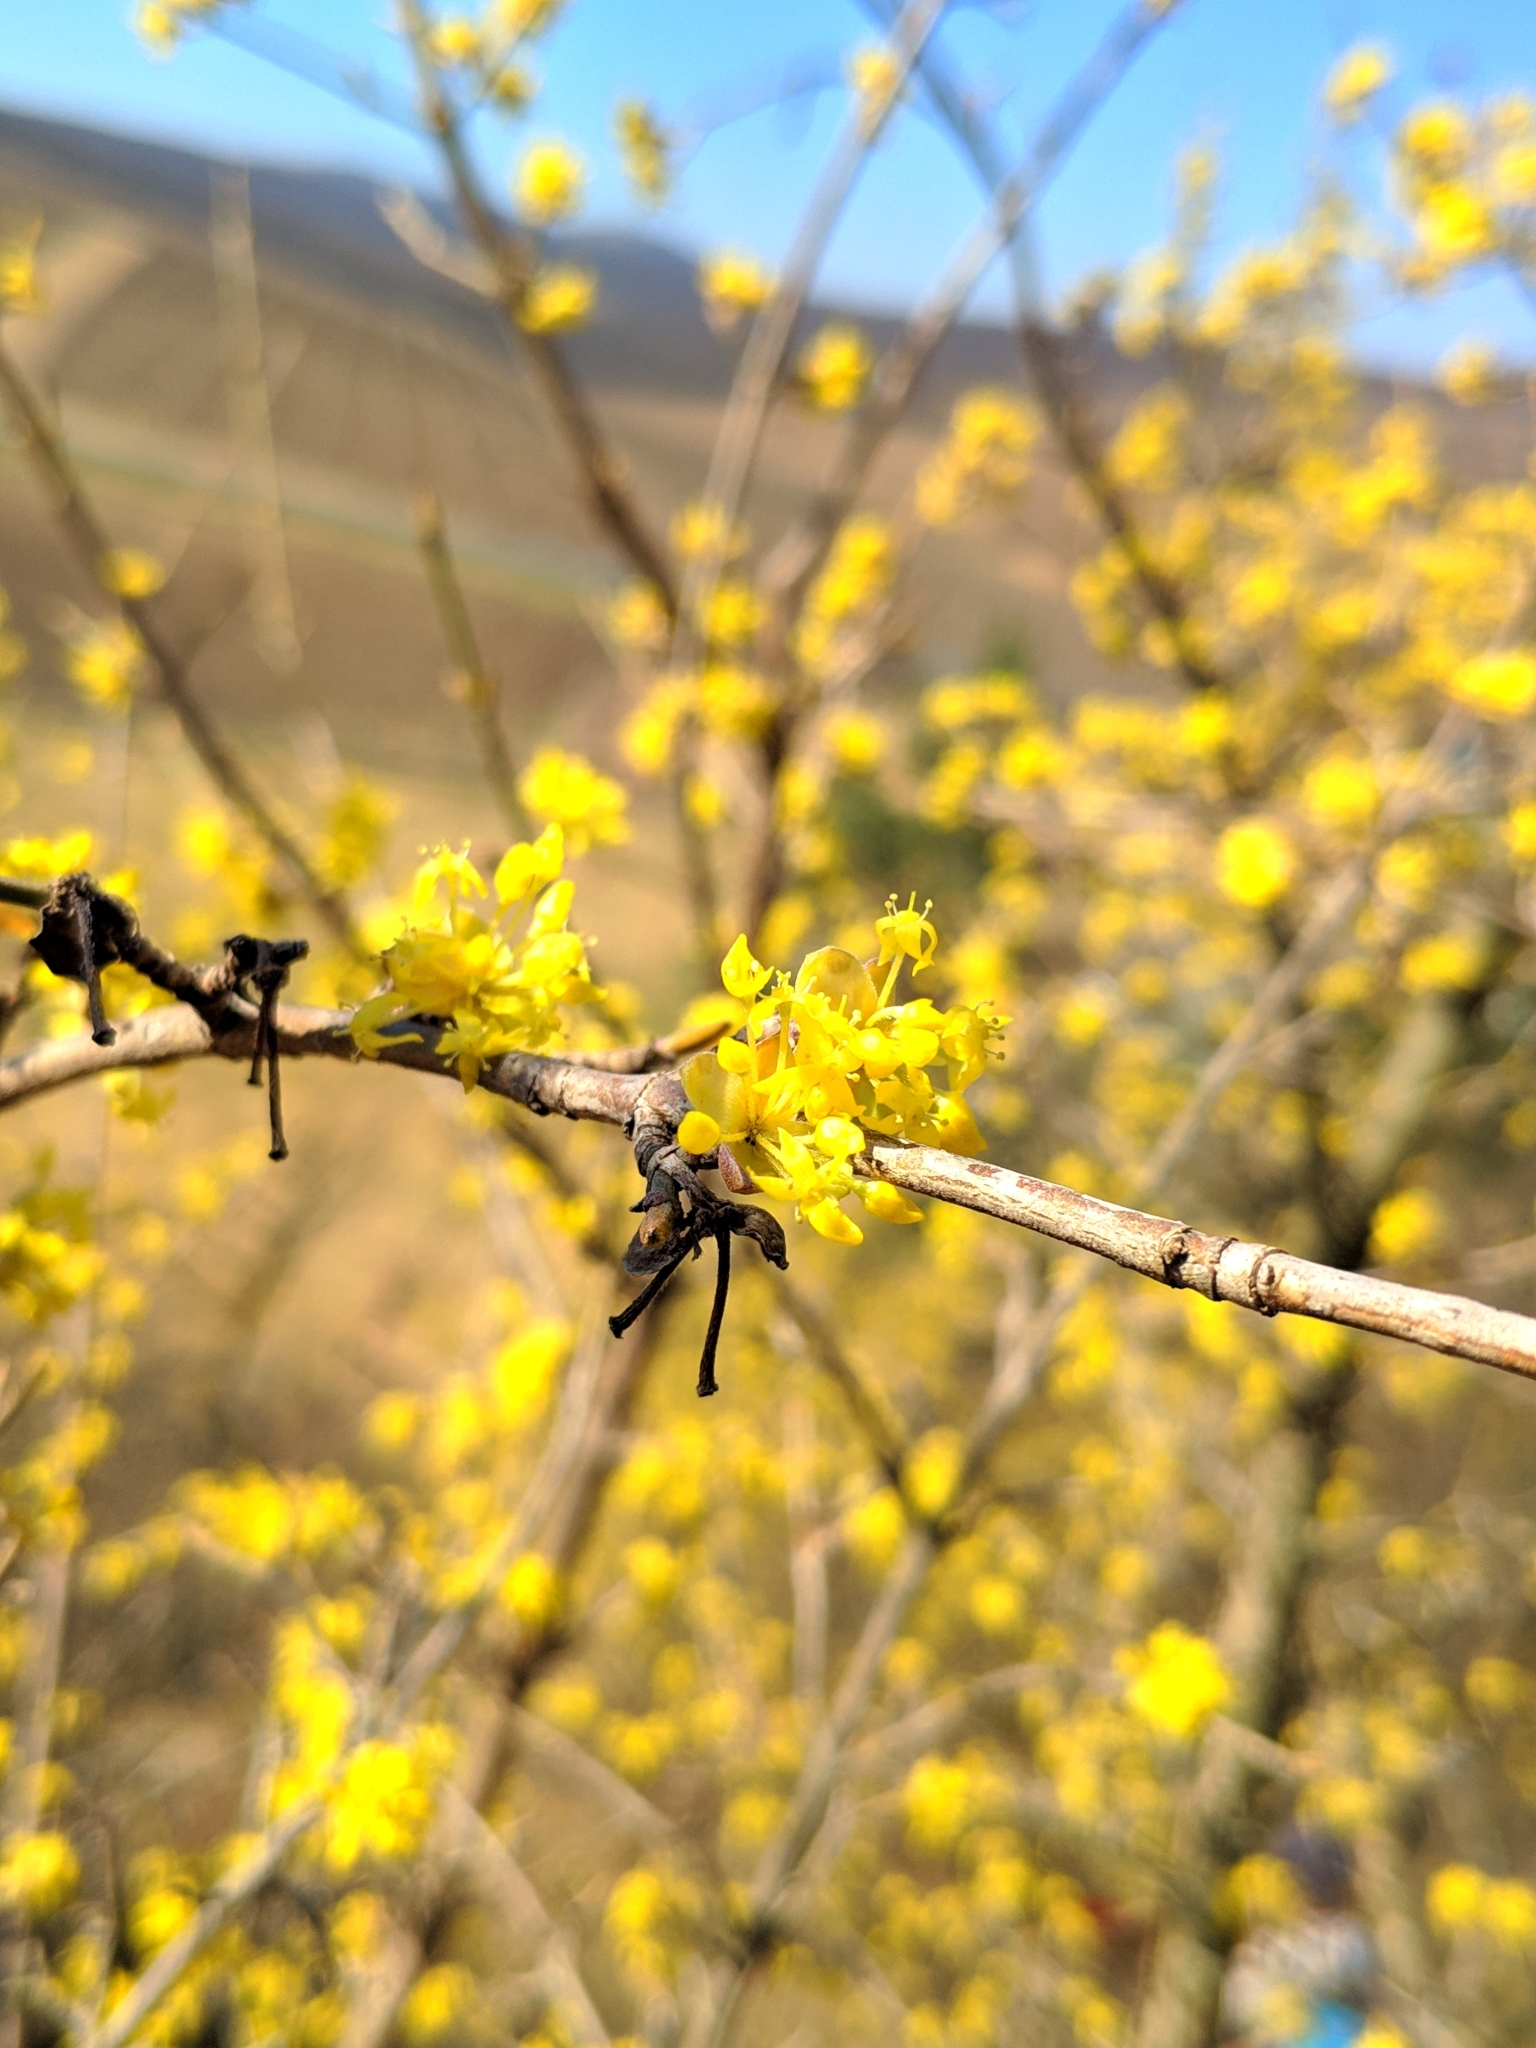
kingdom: Plantae
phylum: Tracheophyta
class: Magnoliopsida
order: Cornales
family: Cornaceae
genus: Cornus
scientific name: Cornus mas
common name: Cornelian-cherry
